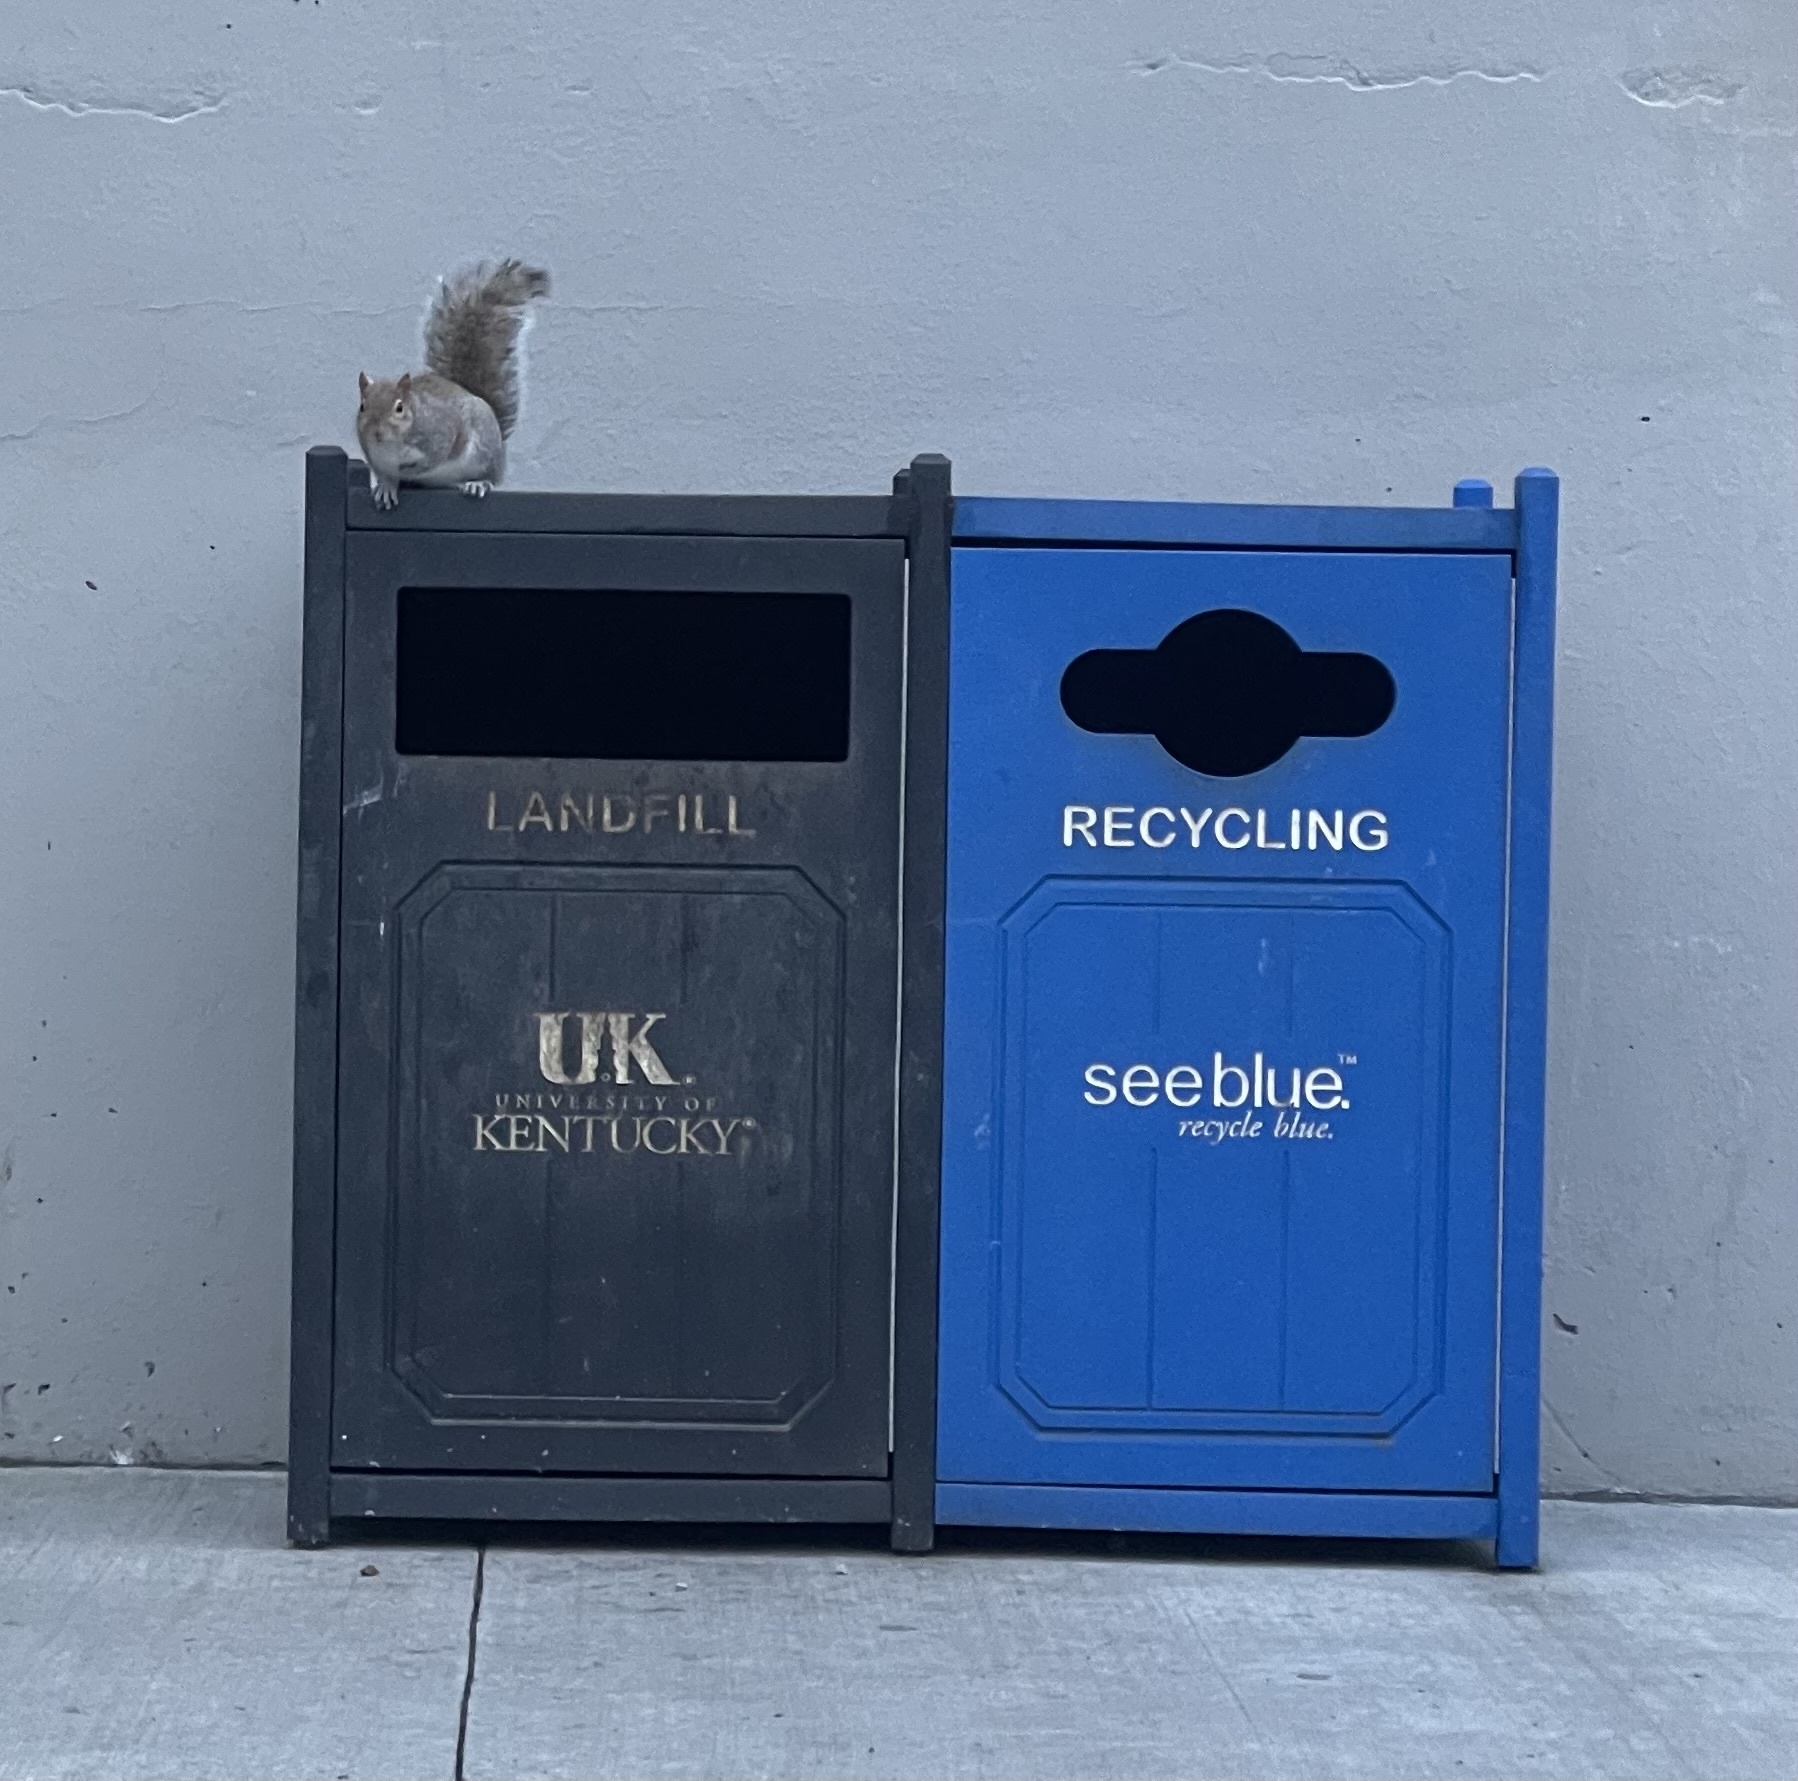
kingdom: Animalia
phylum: Chordata
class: Mammalia
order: Rodentia
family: Sciuridae
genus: Sciurus
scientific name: Sciurus carolinensis
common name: Eastern gray squirrel
